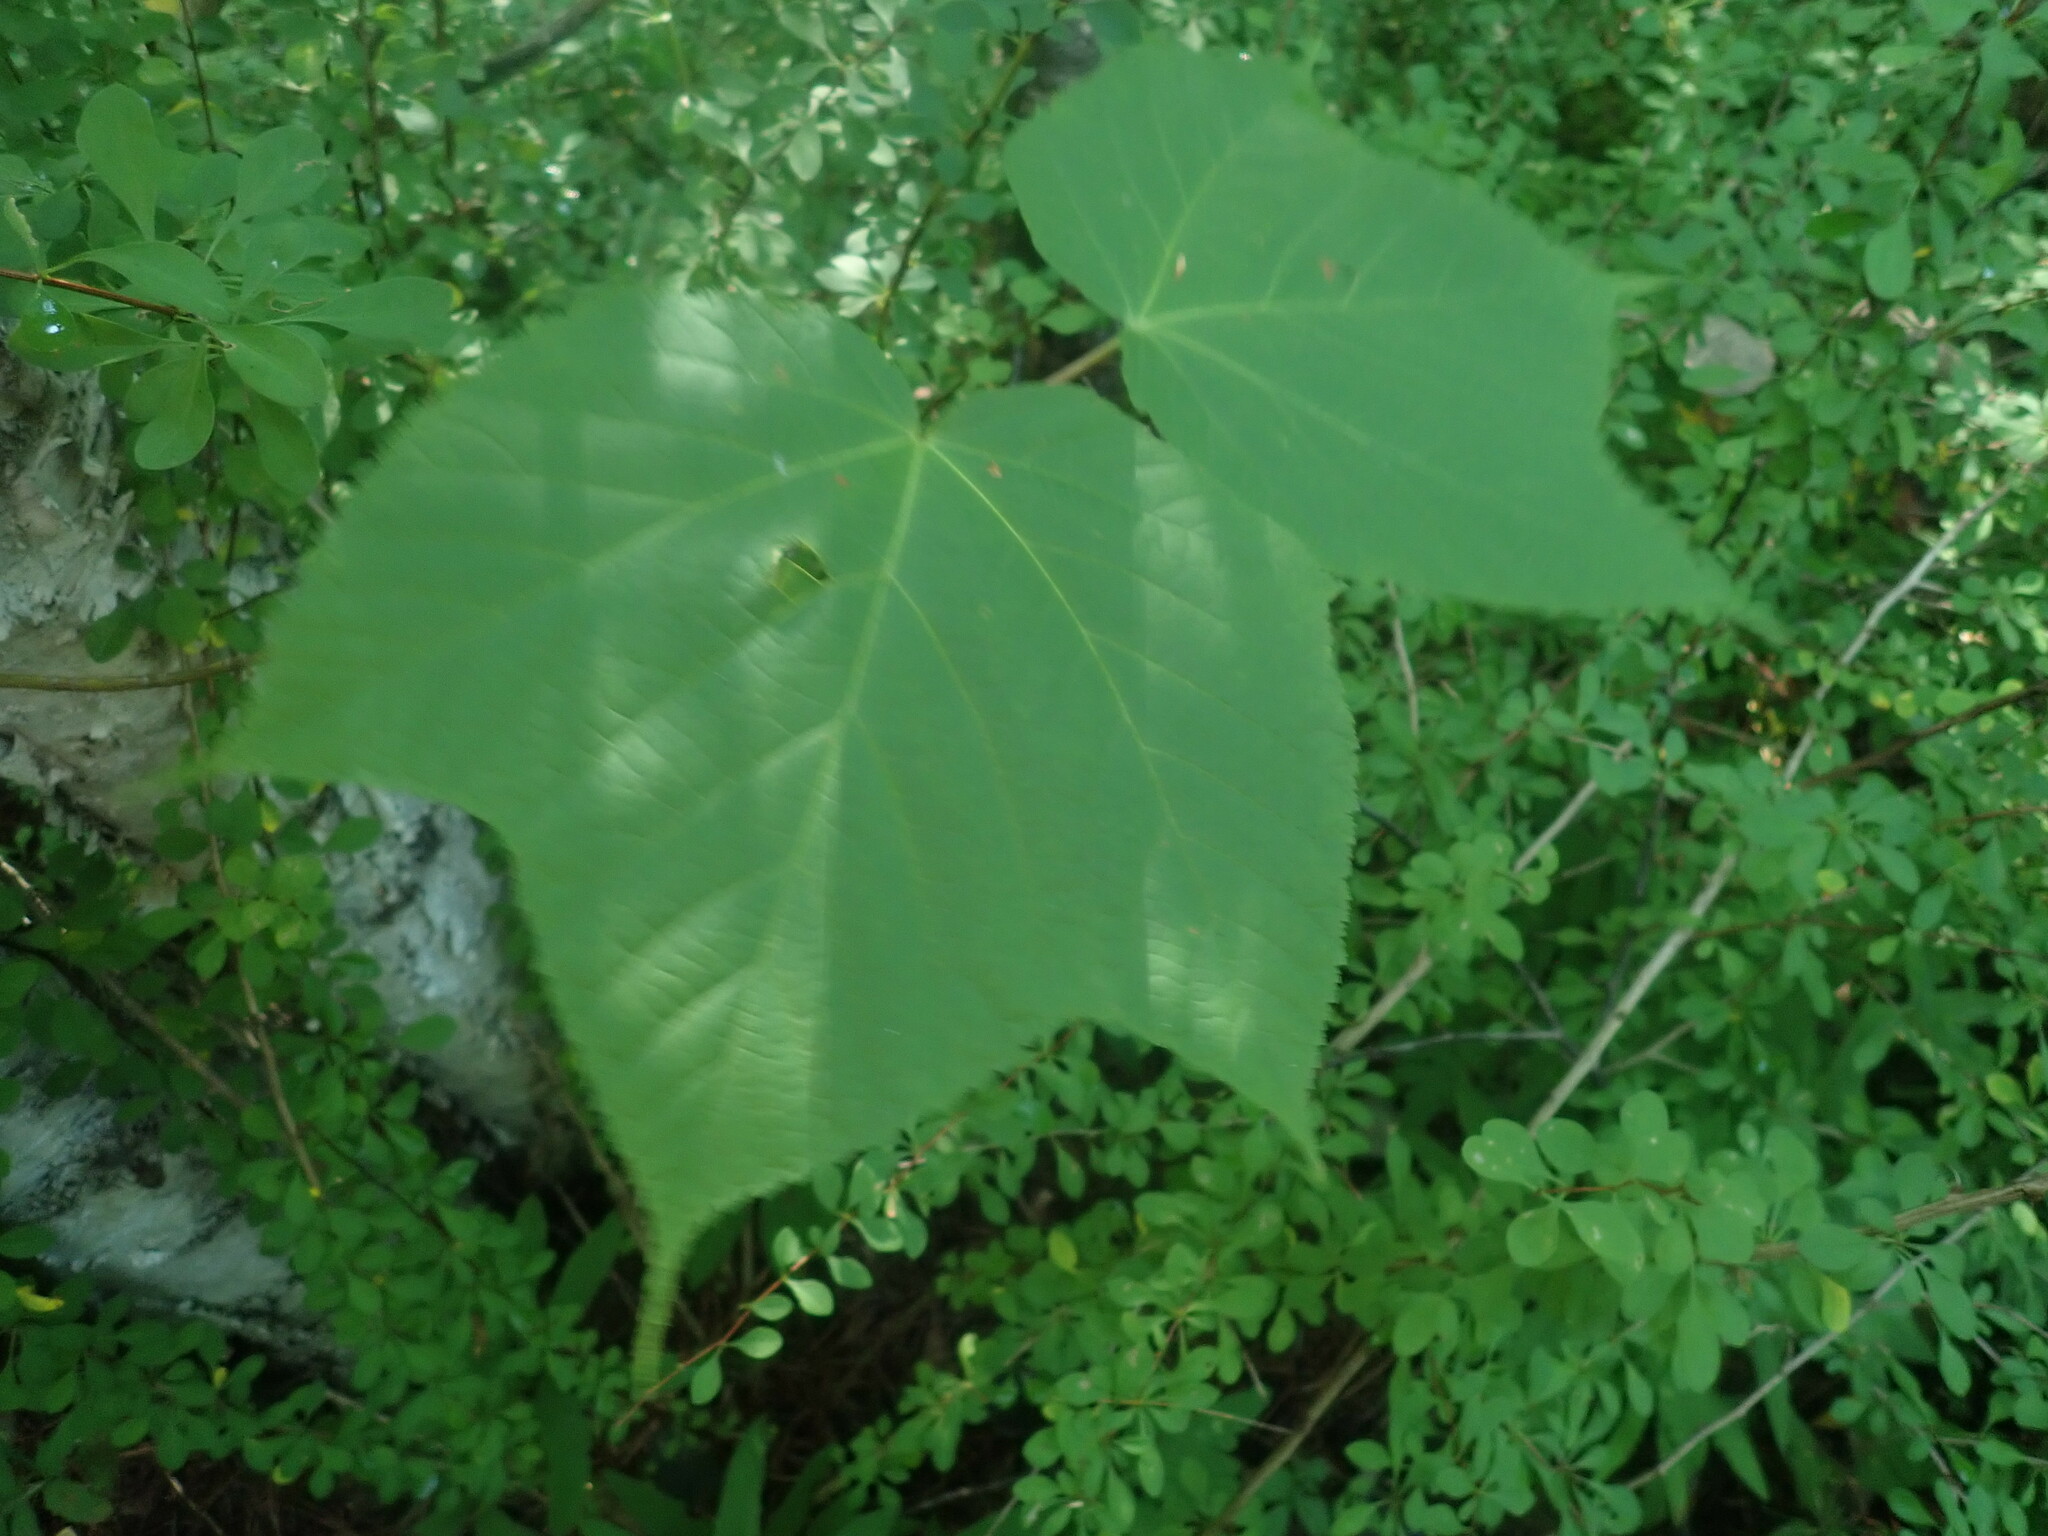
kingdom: Plantae
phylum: Tracheophyta
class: Magnoliopsida
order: Sapindales
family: Sapindaceae
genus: Acer
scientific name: Acer pensylvanicum
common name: Moosewood
